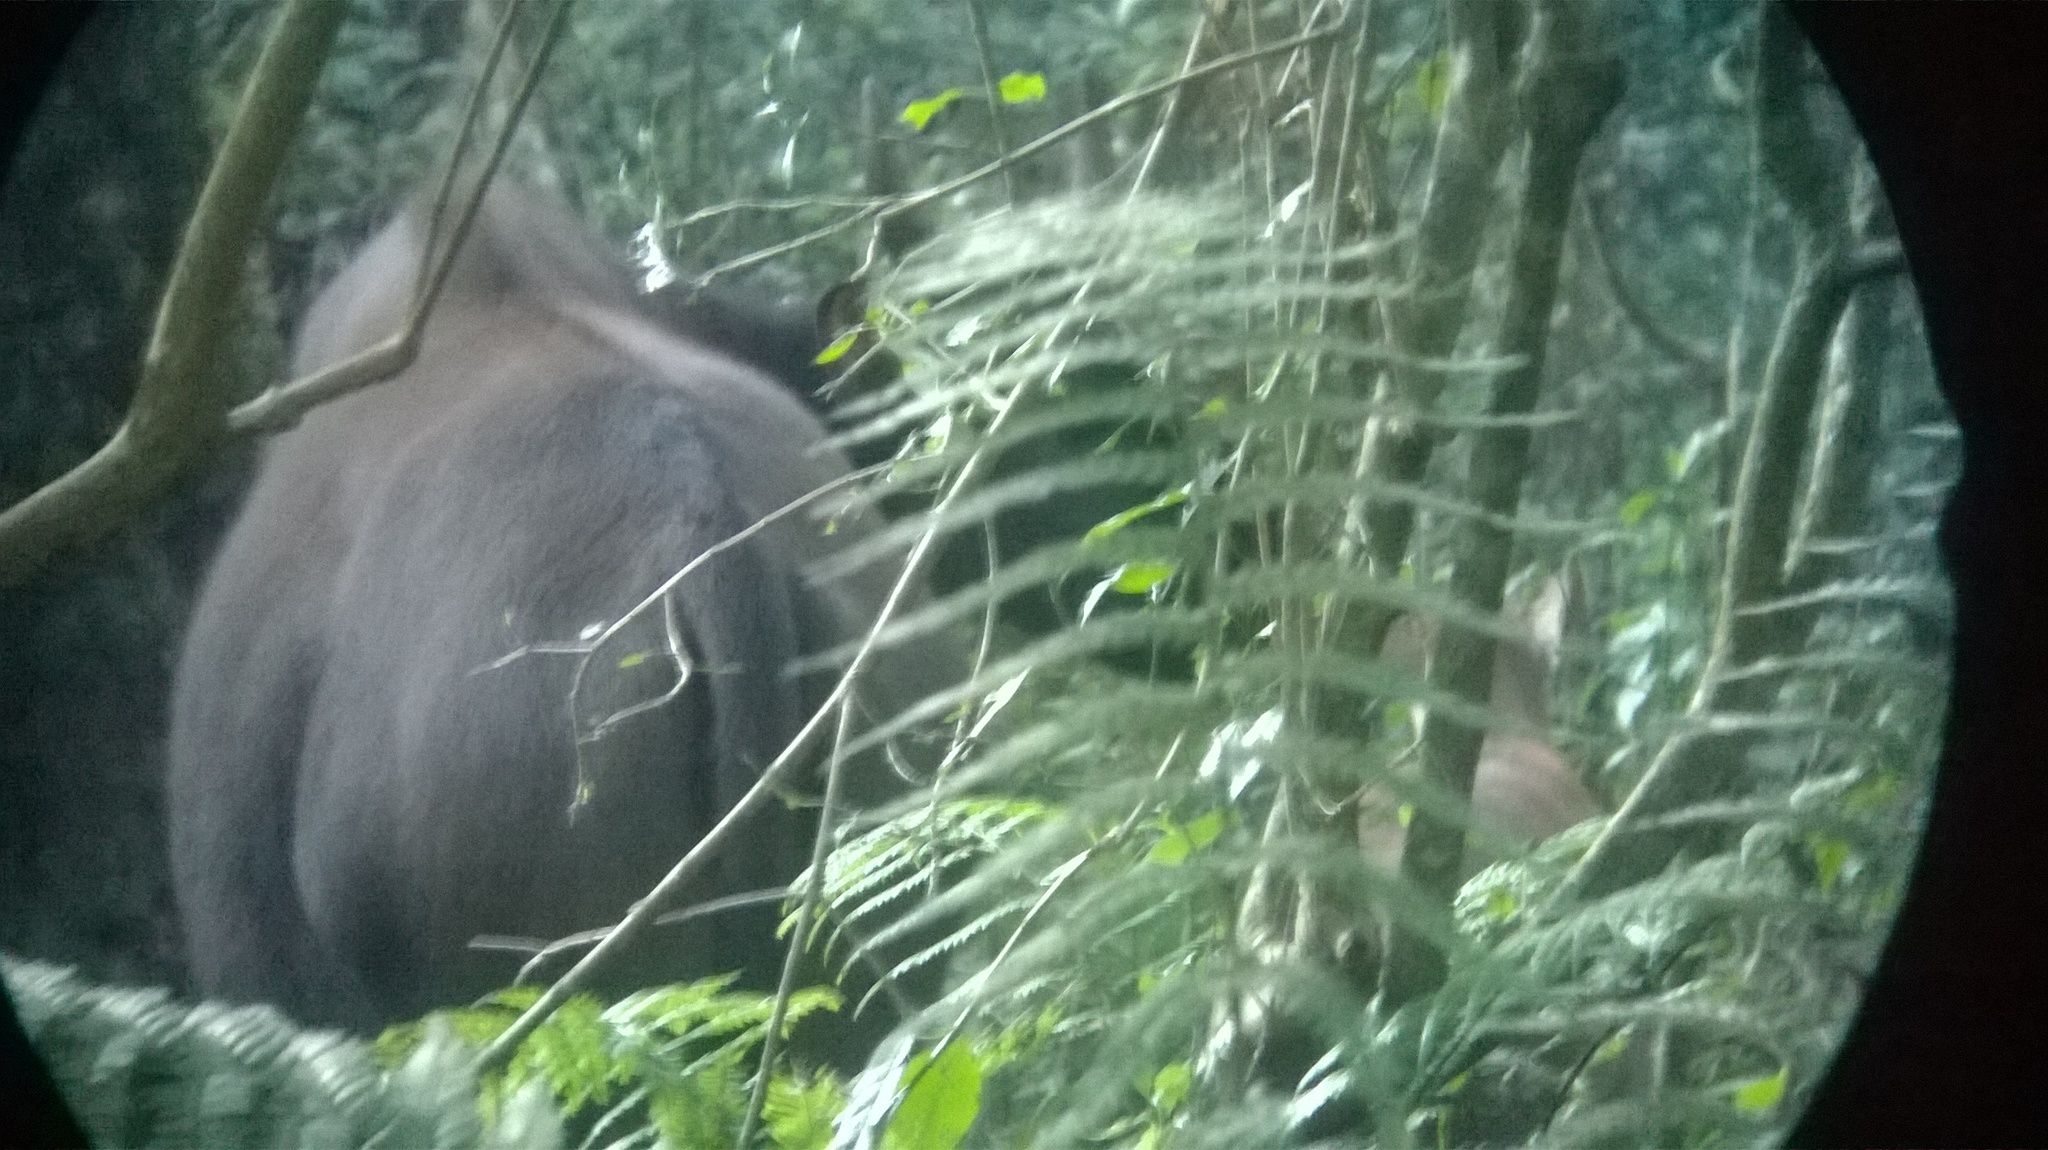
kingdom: Animalia
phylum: Chordata
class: Mammalia
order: Artiodactyla
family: Bovidae
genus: Bos
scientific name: Bos frontalis
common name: Gaur
